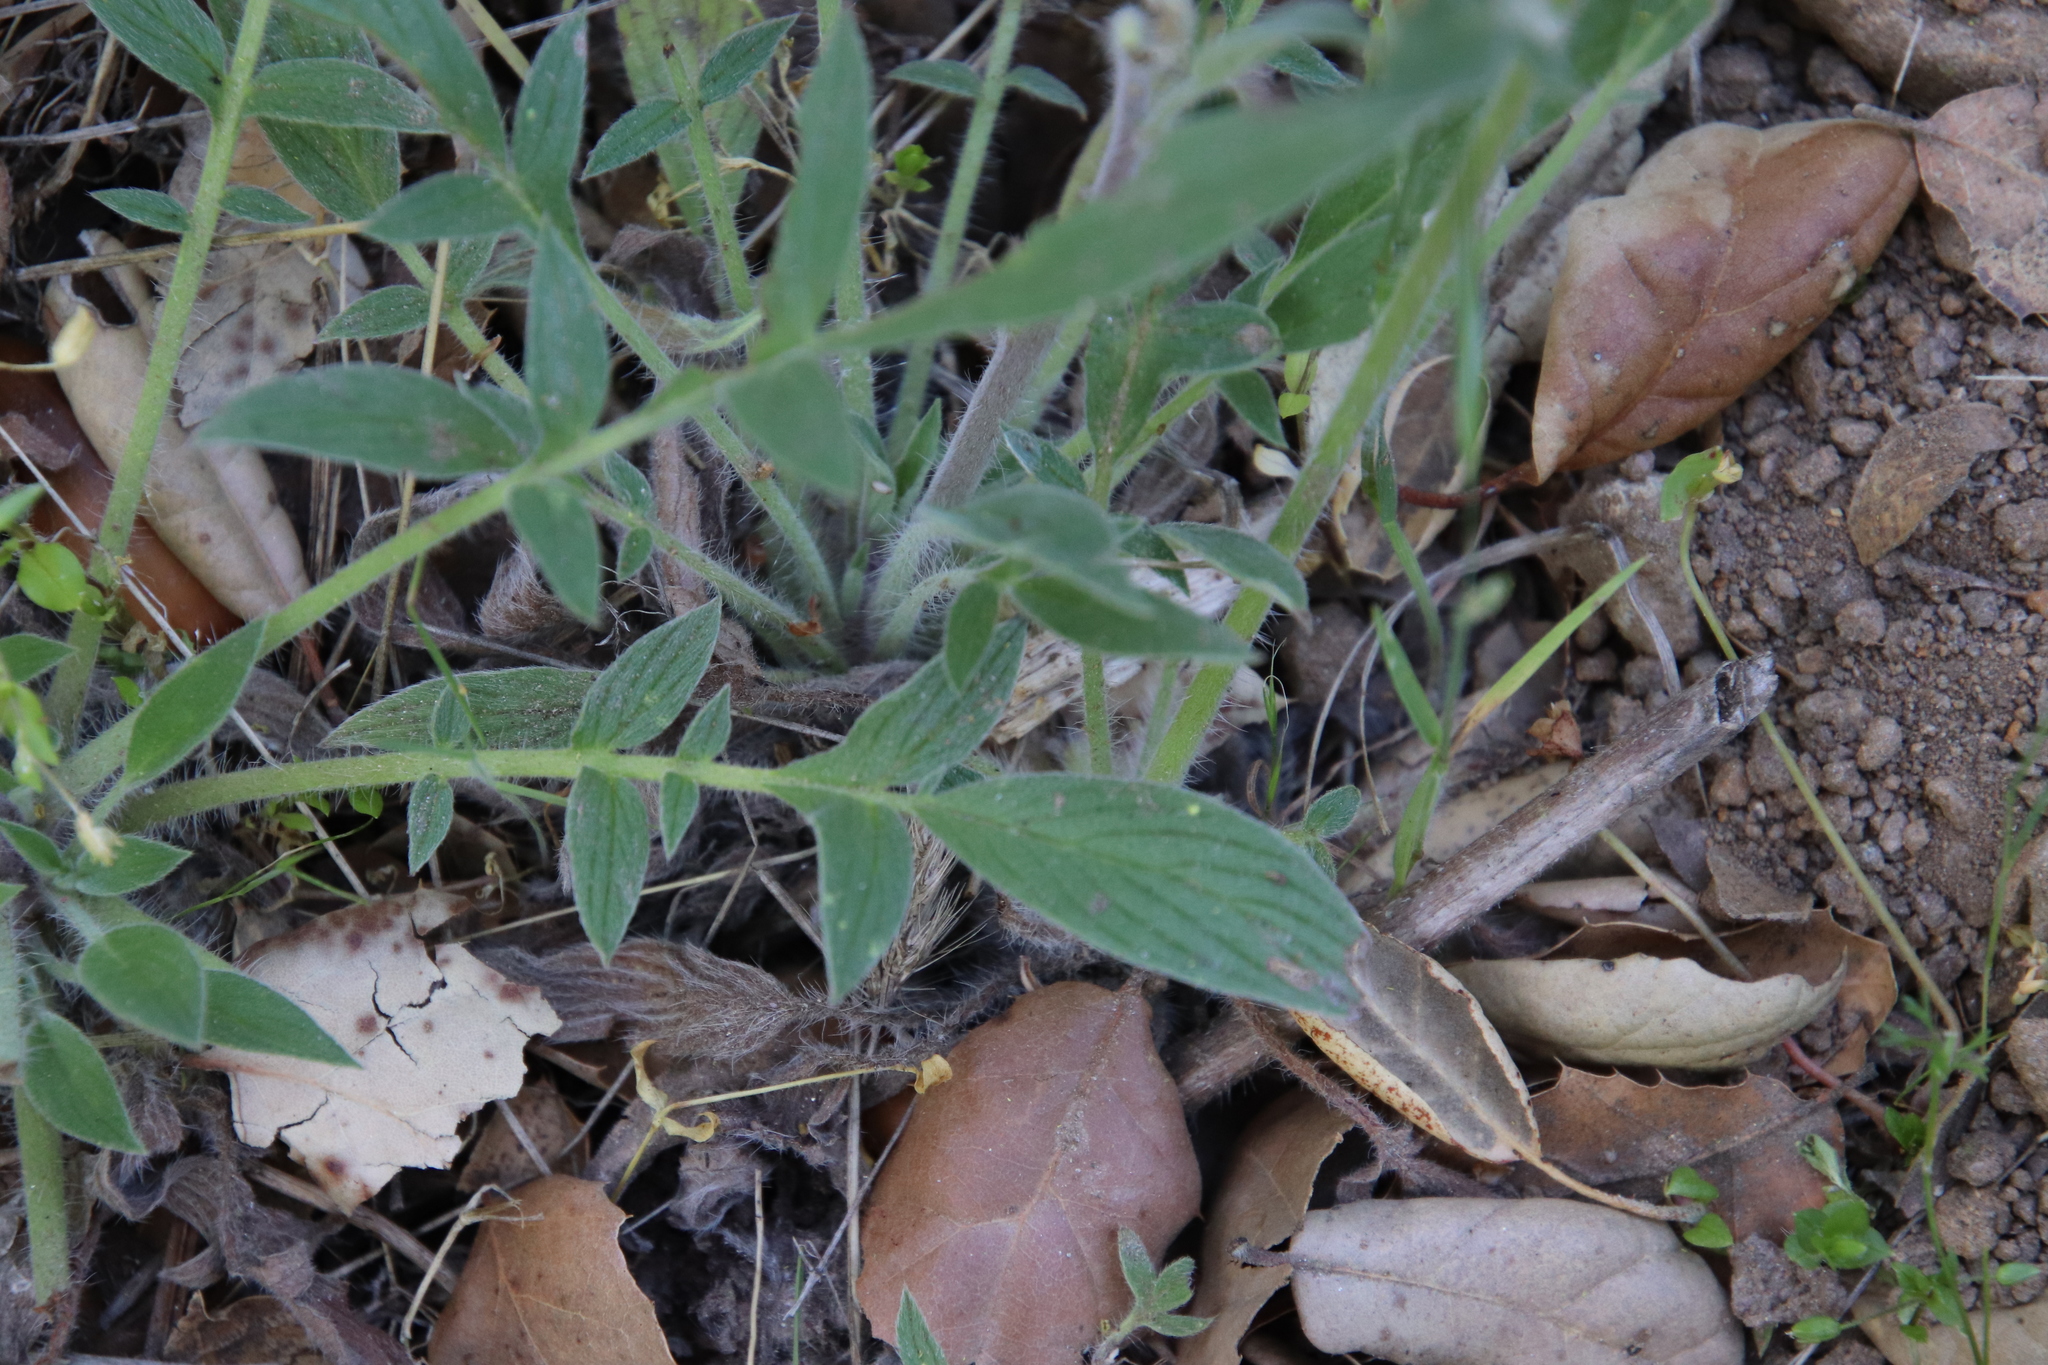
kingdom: Plantae
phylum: Tracheophyta
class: Magnoliopsida
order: Boraginales
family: Hydrophyllaceae
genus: Phacelia
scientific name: Phacelia imbricata
